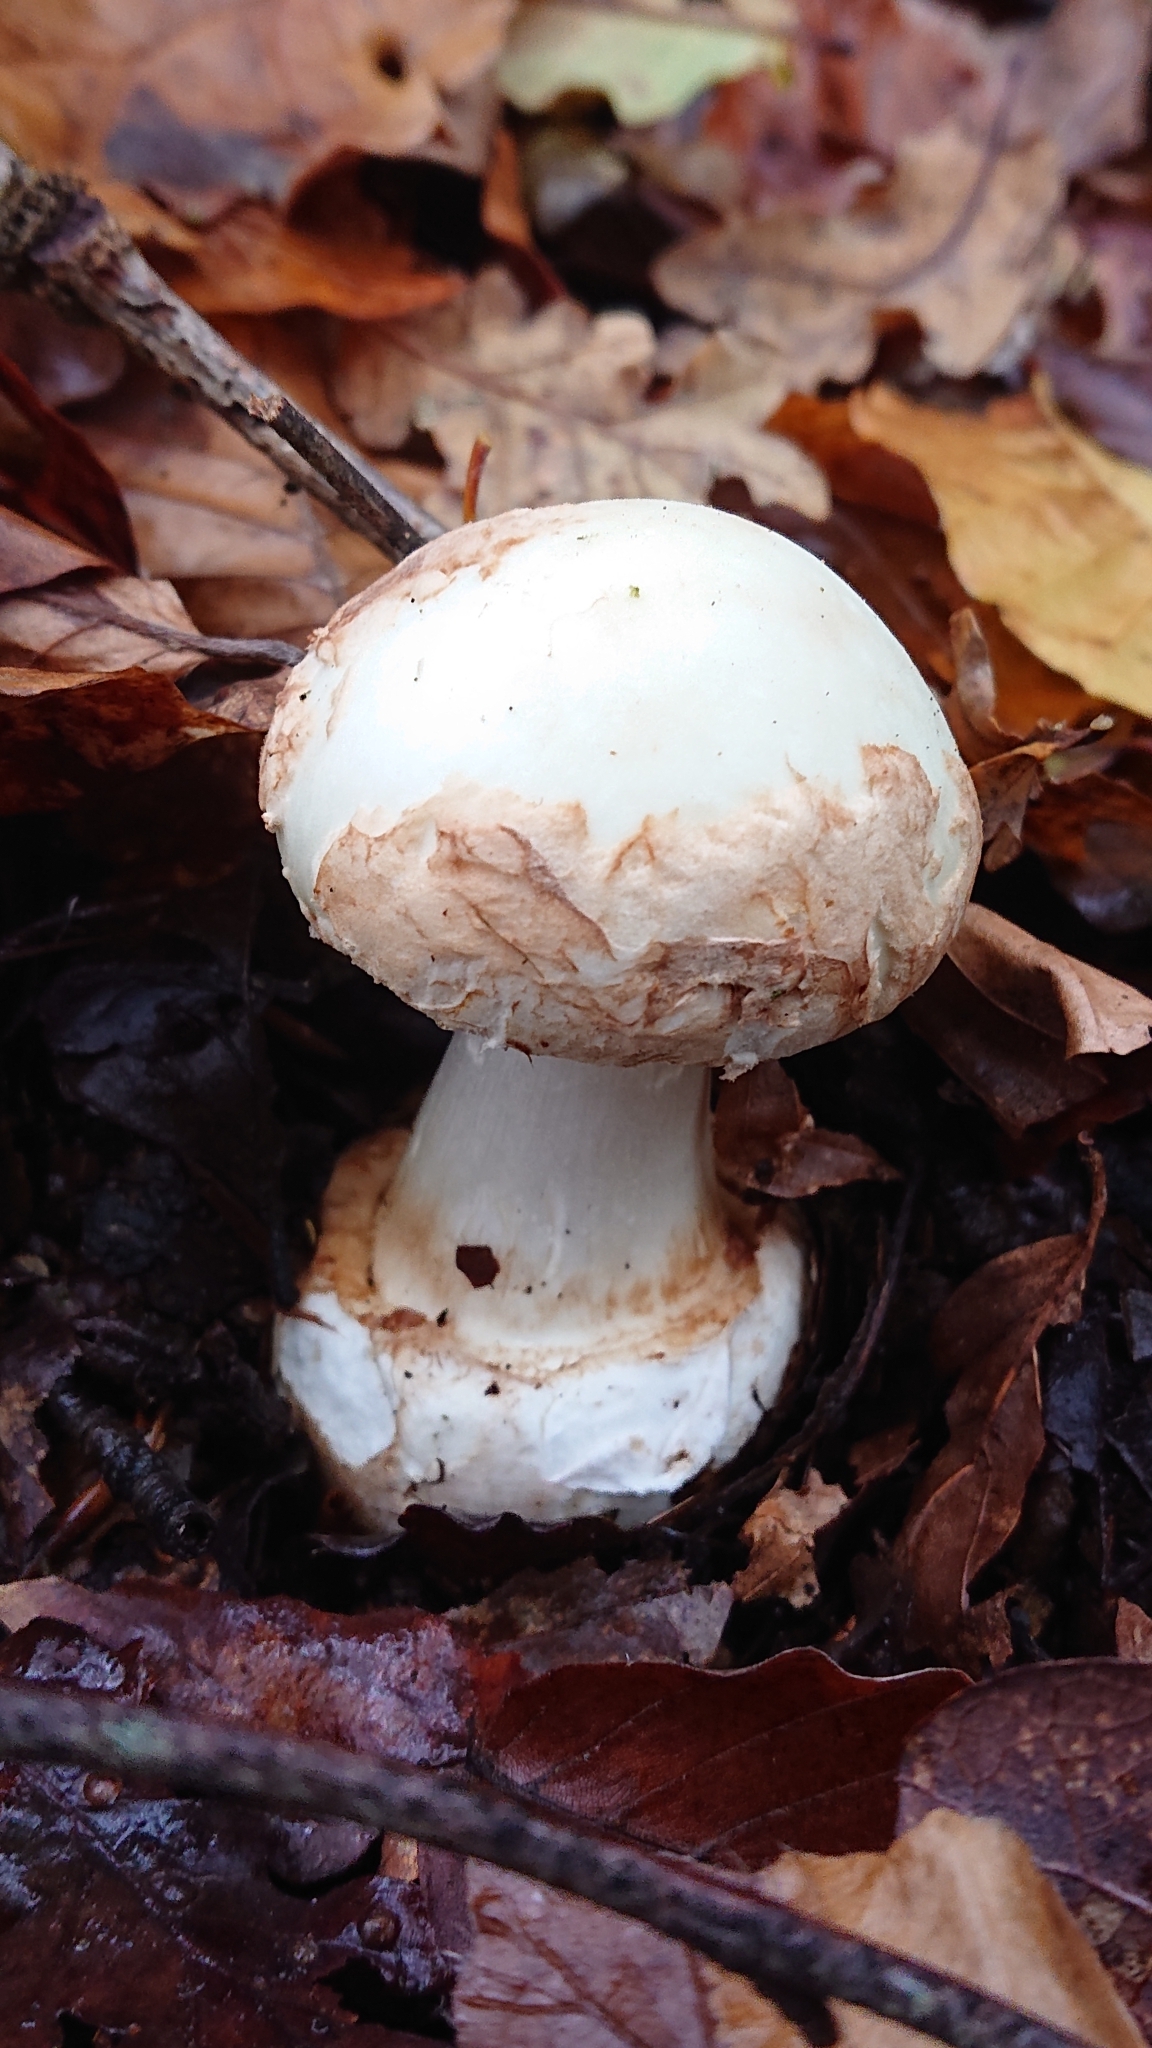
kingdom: Fungi
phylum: Basidiomycota
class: Agaricomycetes
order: Agaricales
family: Amanitaceae
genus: Amanita
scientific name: Amanita citrina
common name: False death-cap
